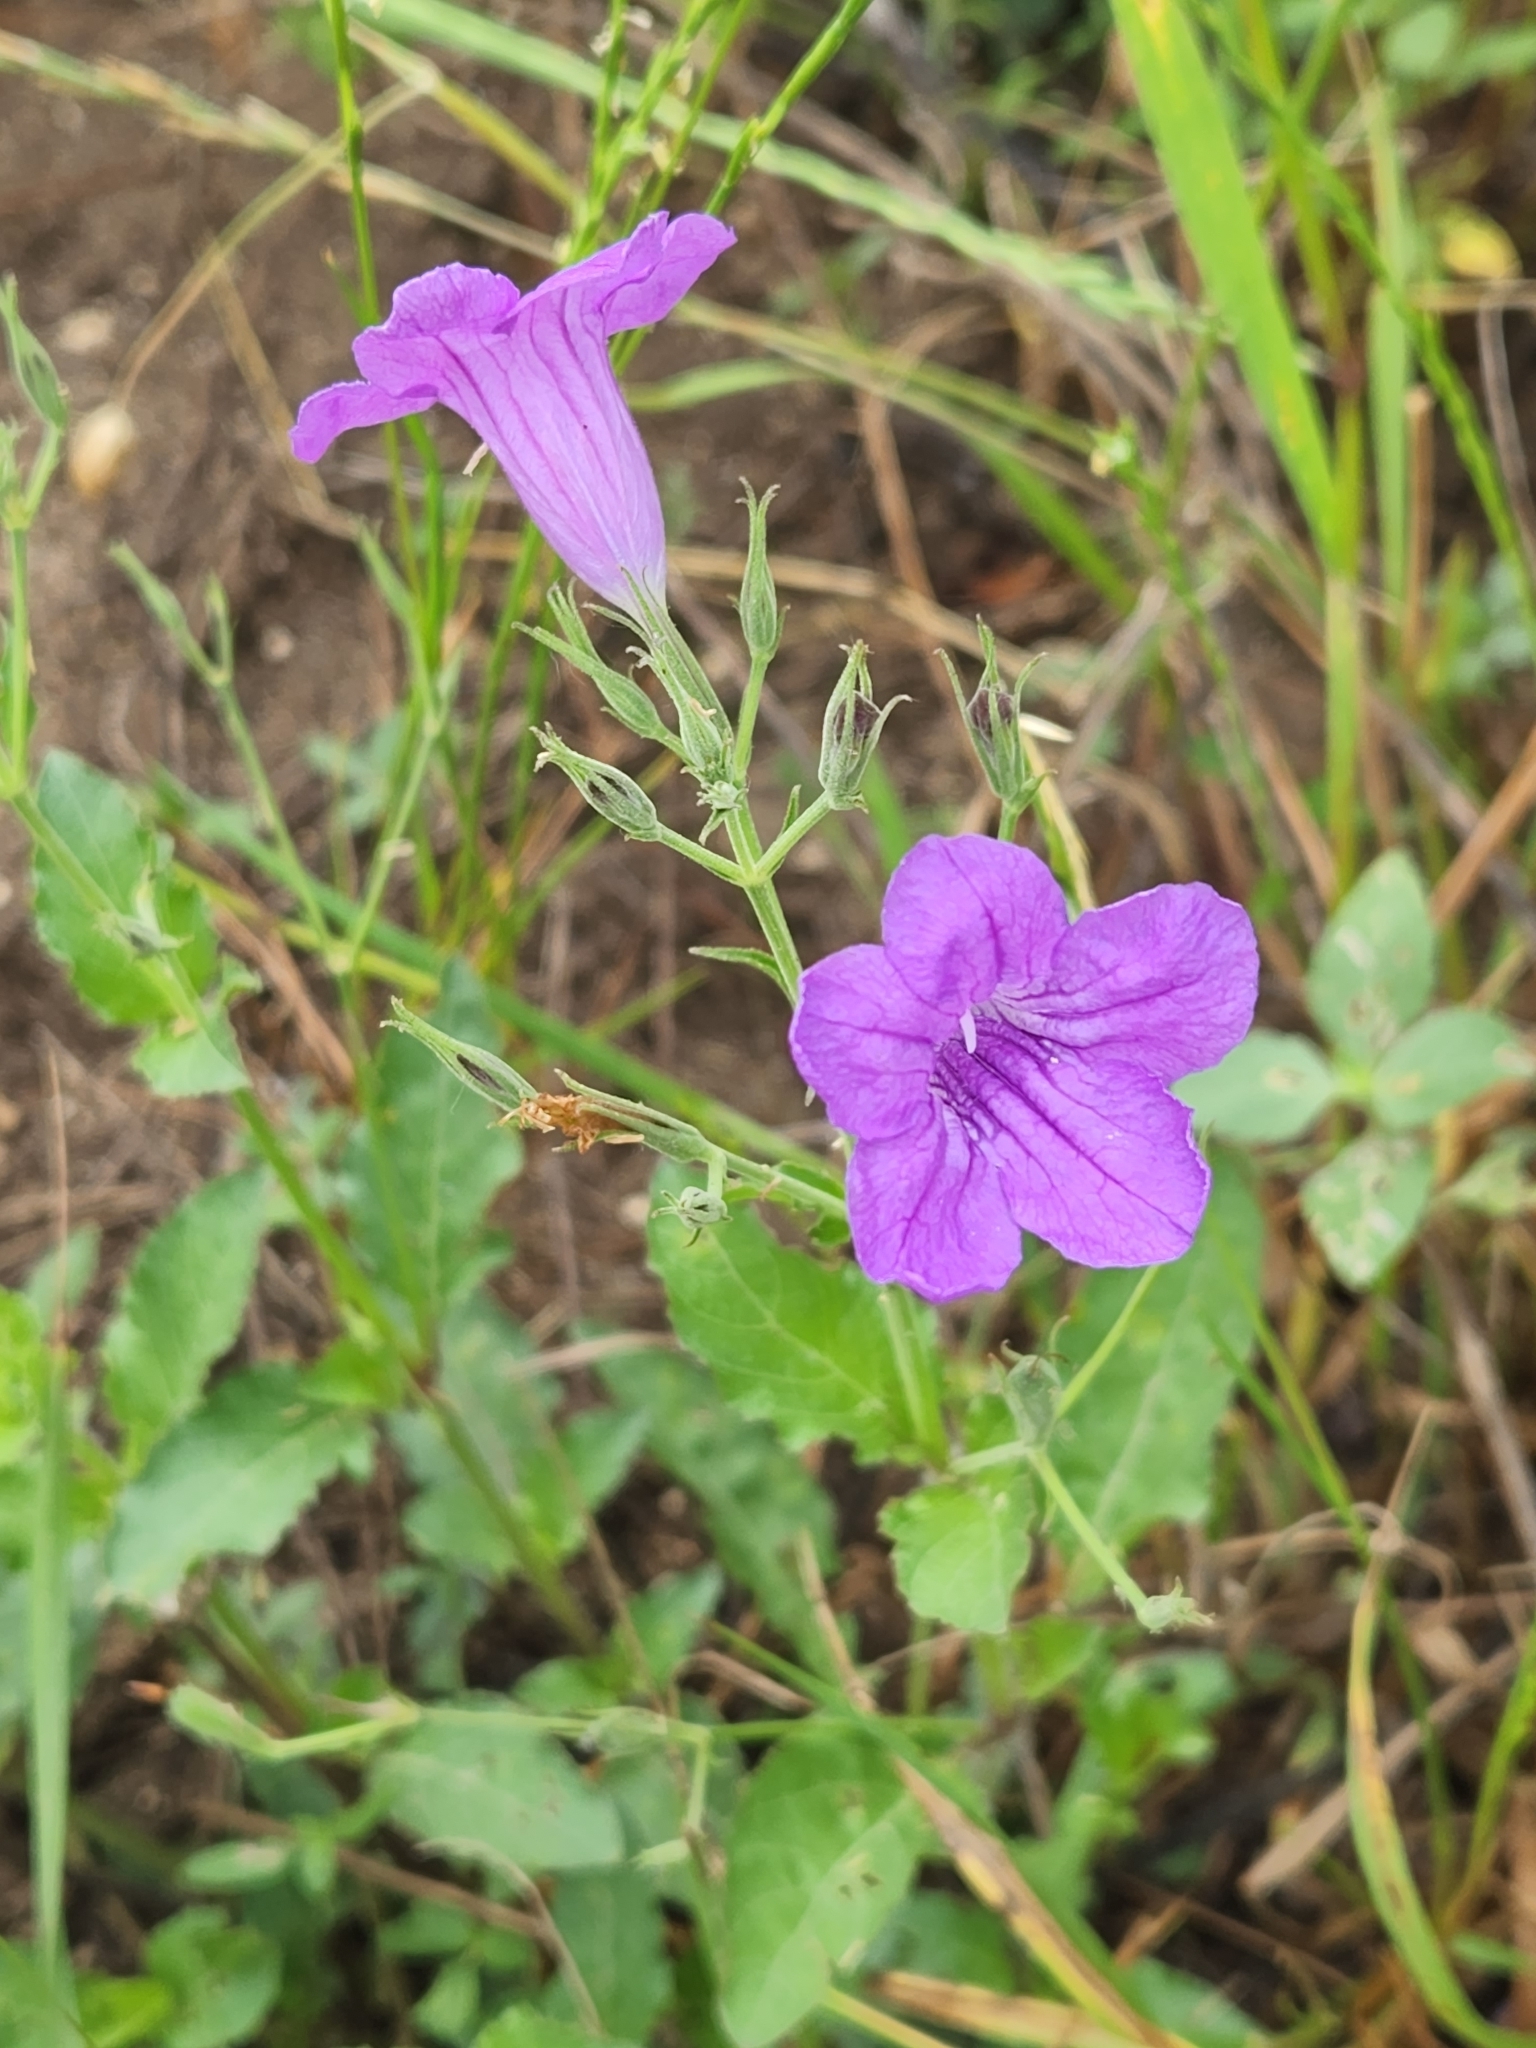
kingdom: Plantae
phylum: Tracheophyta
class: Magnoliopsida
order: Lamiales
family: Acanthaceae
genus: Ruellia
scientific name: Ruellia ciliatiflora
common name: Hairyflower wild petunia
